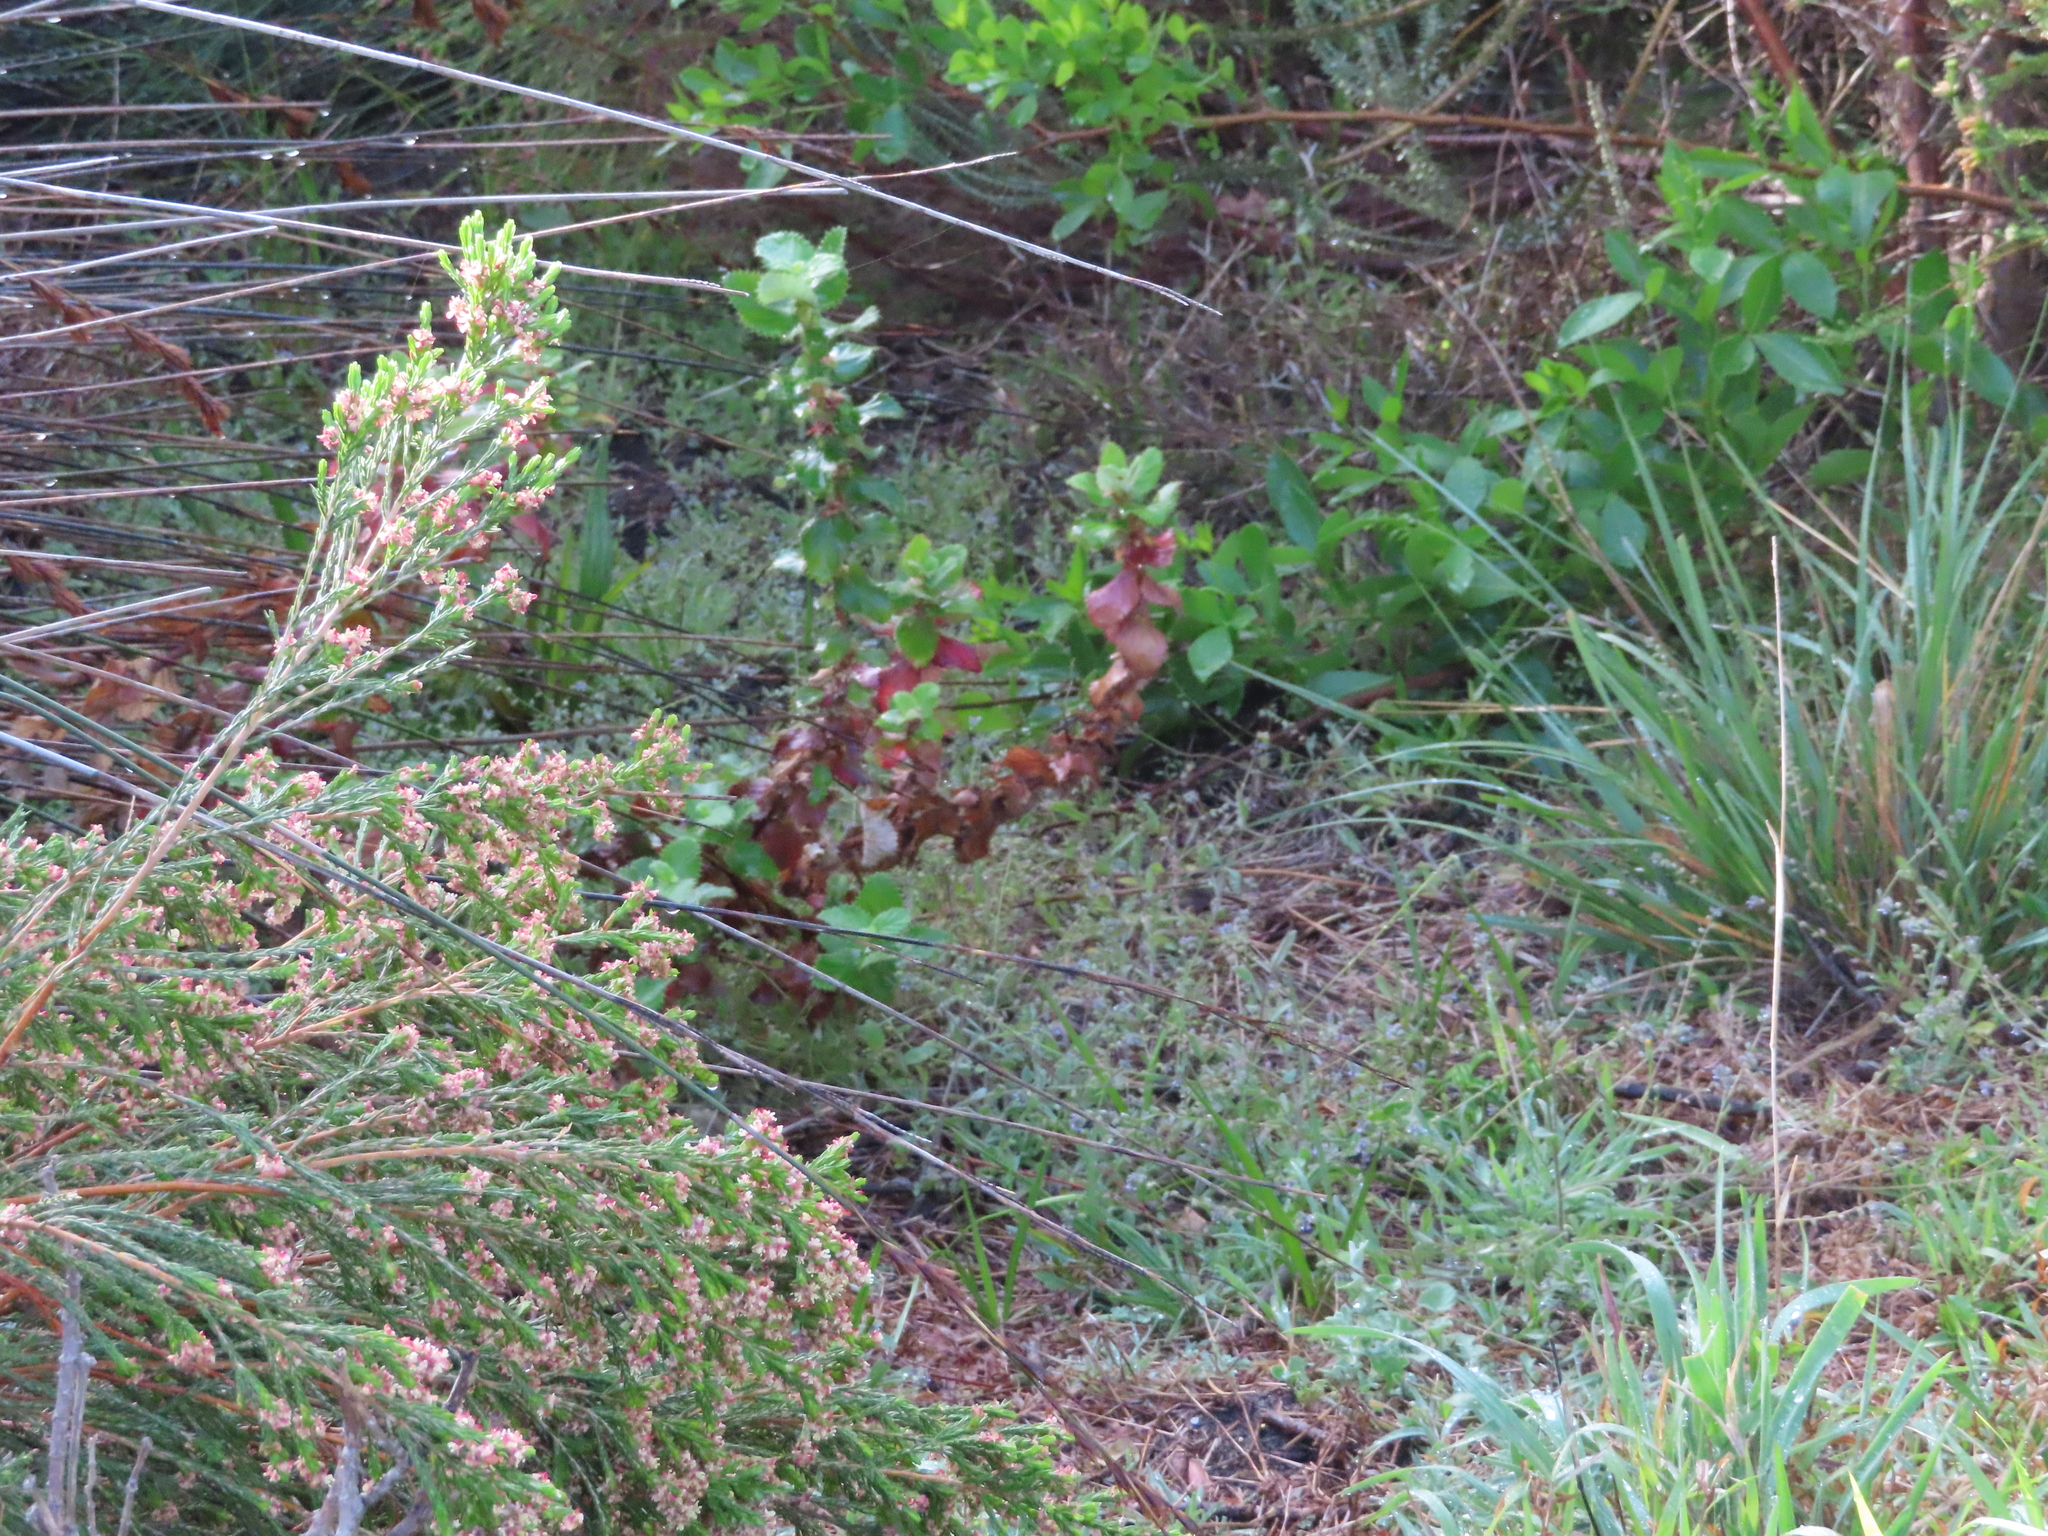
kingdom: Plantae
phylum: Tracheophyta
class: Magnoliopsida
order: Rosales
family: Rosaceae
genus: Cliffortia
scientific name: Cliffortia hirsuta
